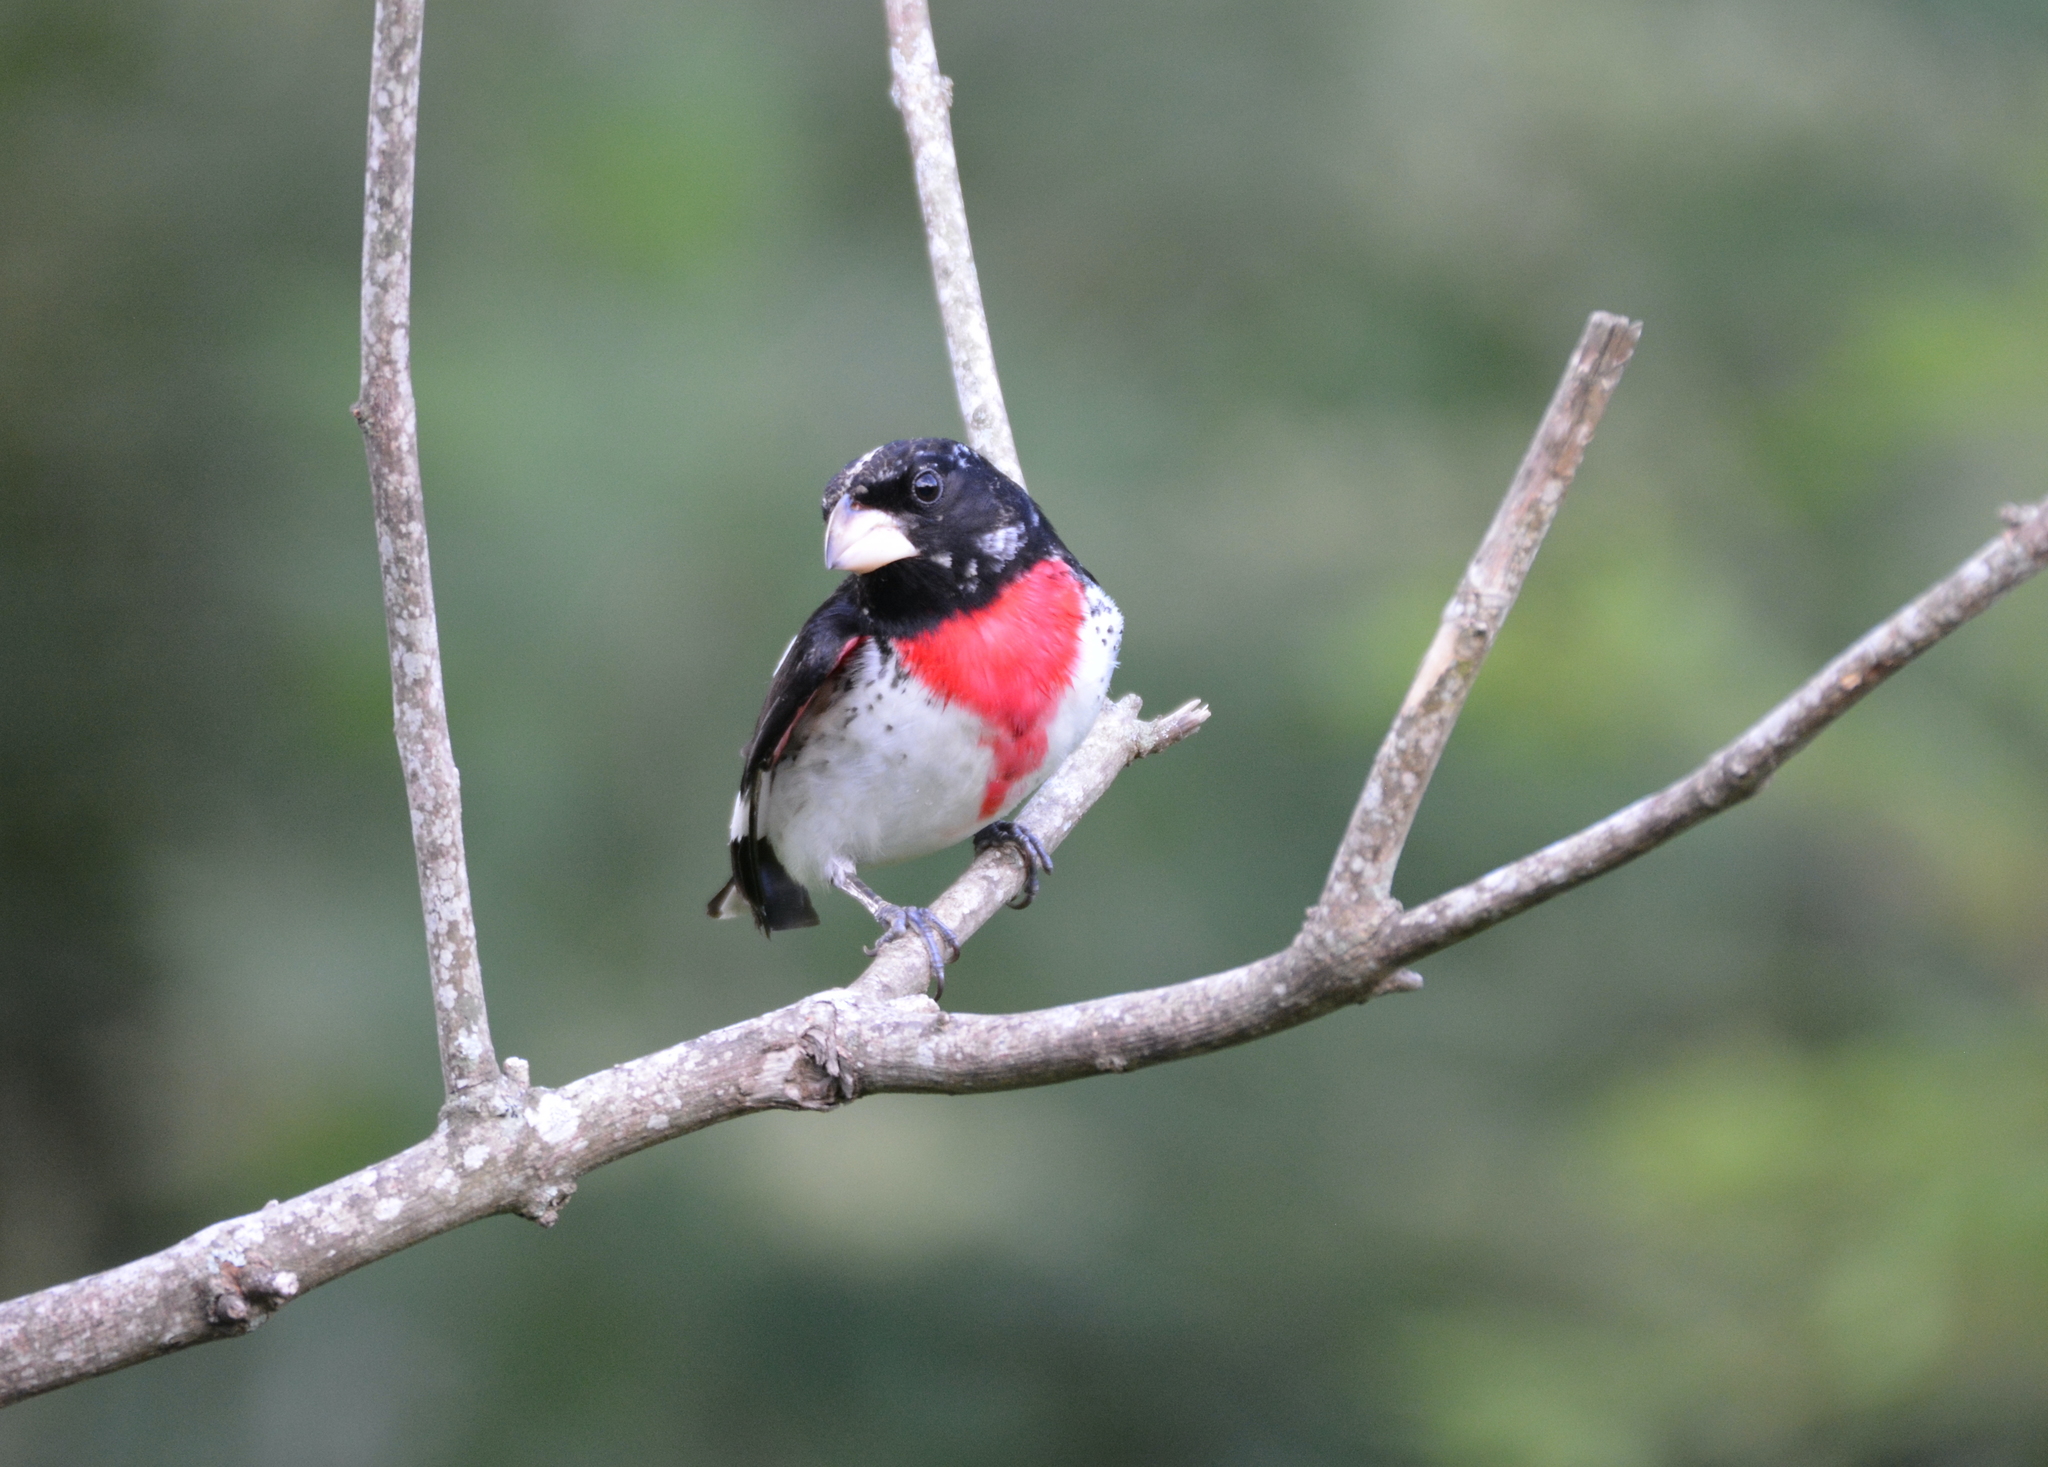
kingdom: Animalia
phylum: Chordata
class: Aves
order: Passeriformes
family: Cardinalidae
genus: Pheucticus
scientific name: Pheucticus ludovicianus
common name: Rose-breasted grosbeak
